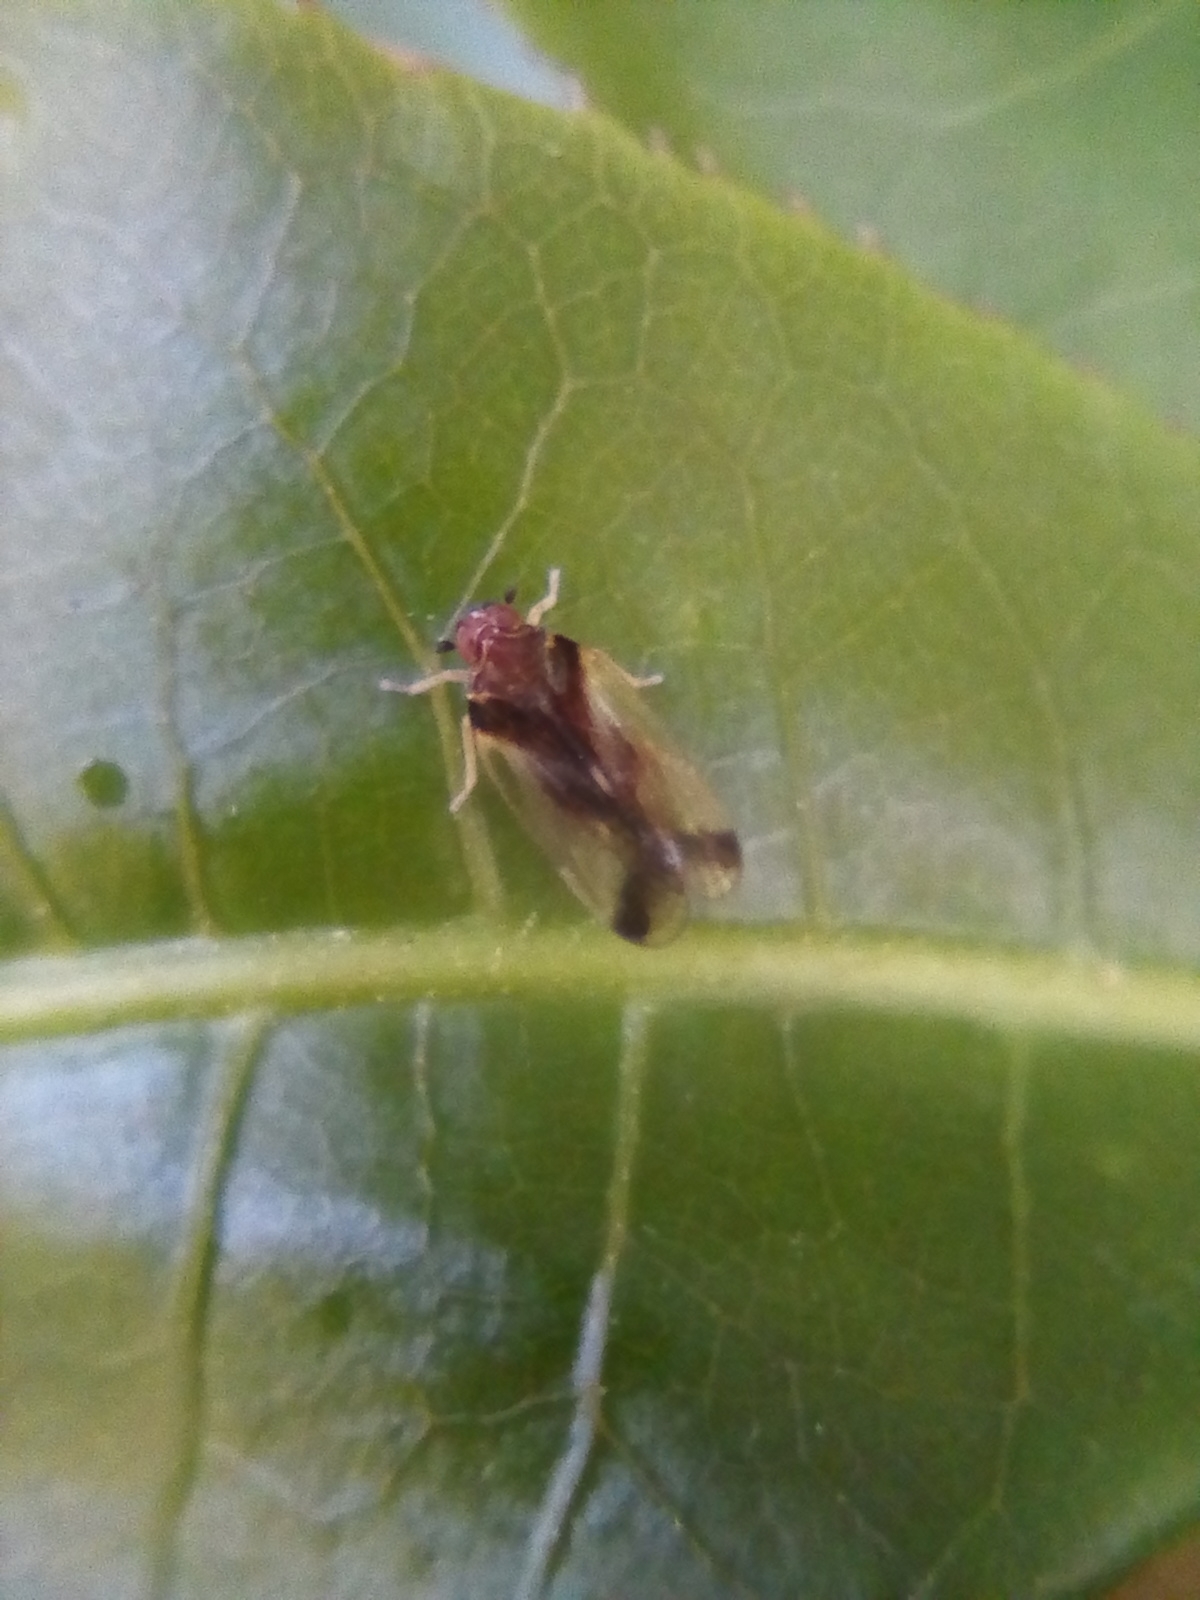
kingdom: Animalia
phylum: Arthropoda
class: Insecta
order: Hemiptera
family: Cixiidae
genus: Tiriteana
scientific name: Tiriteana clarkei
